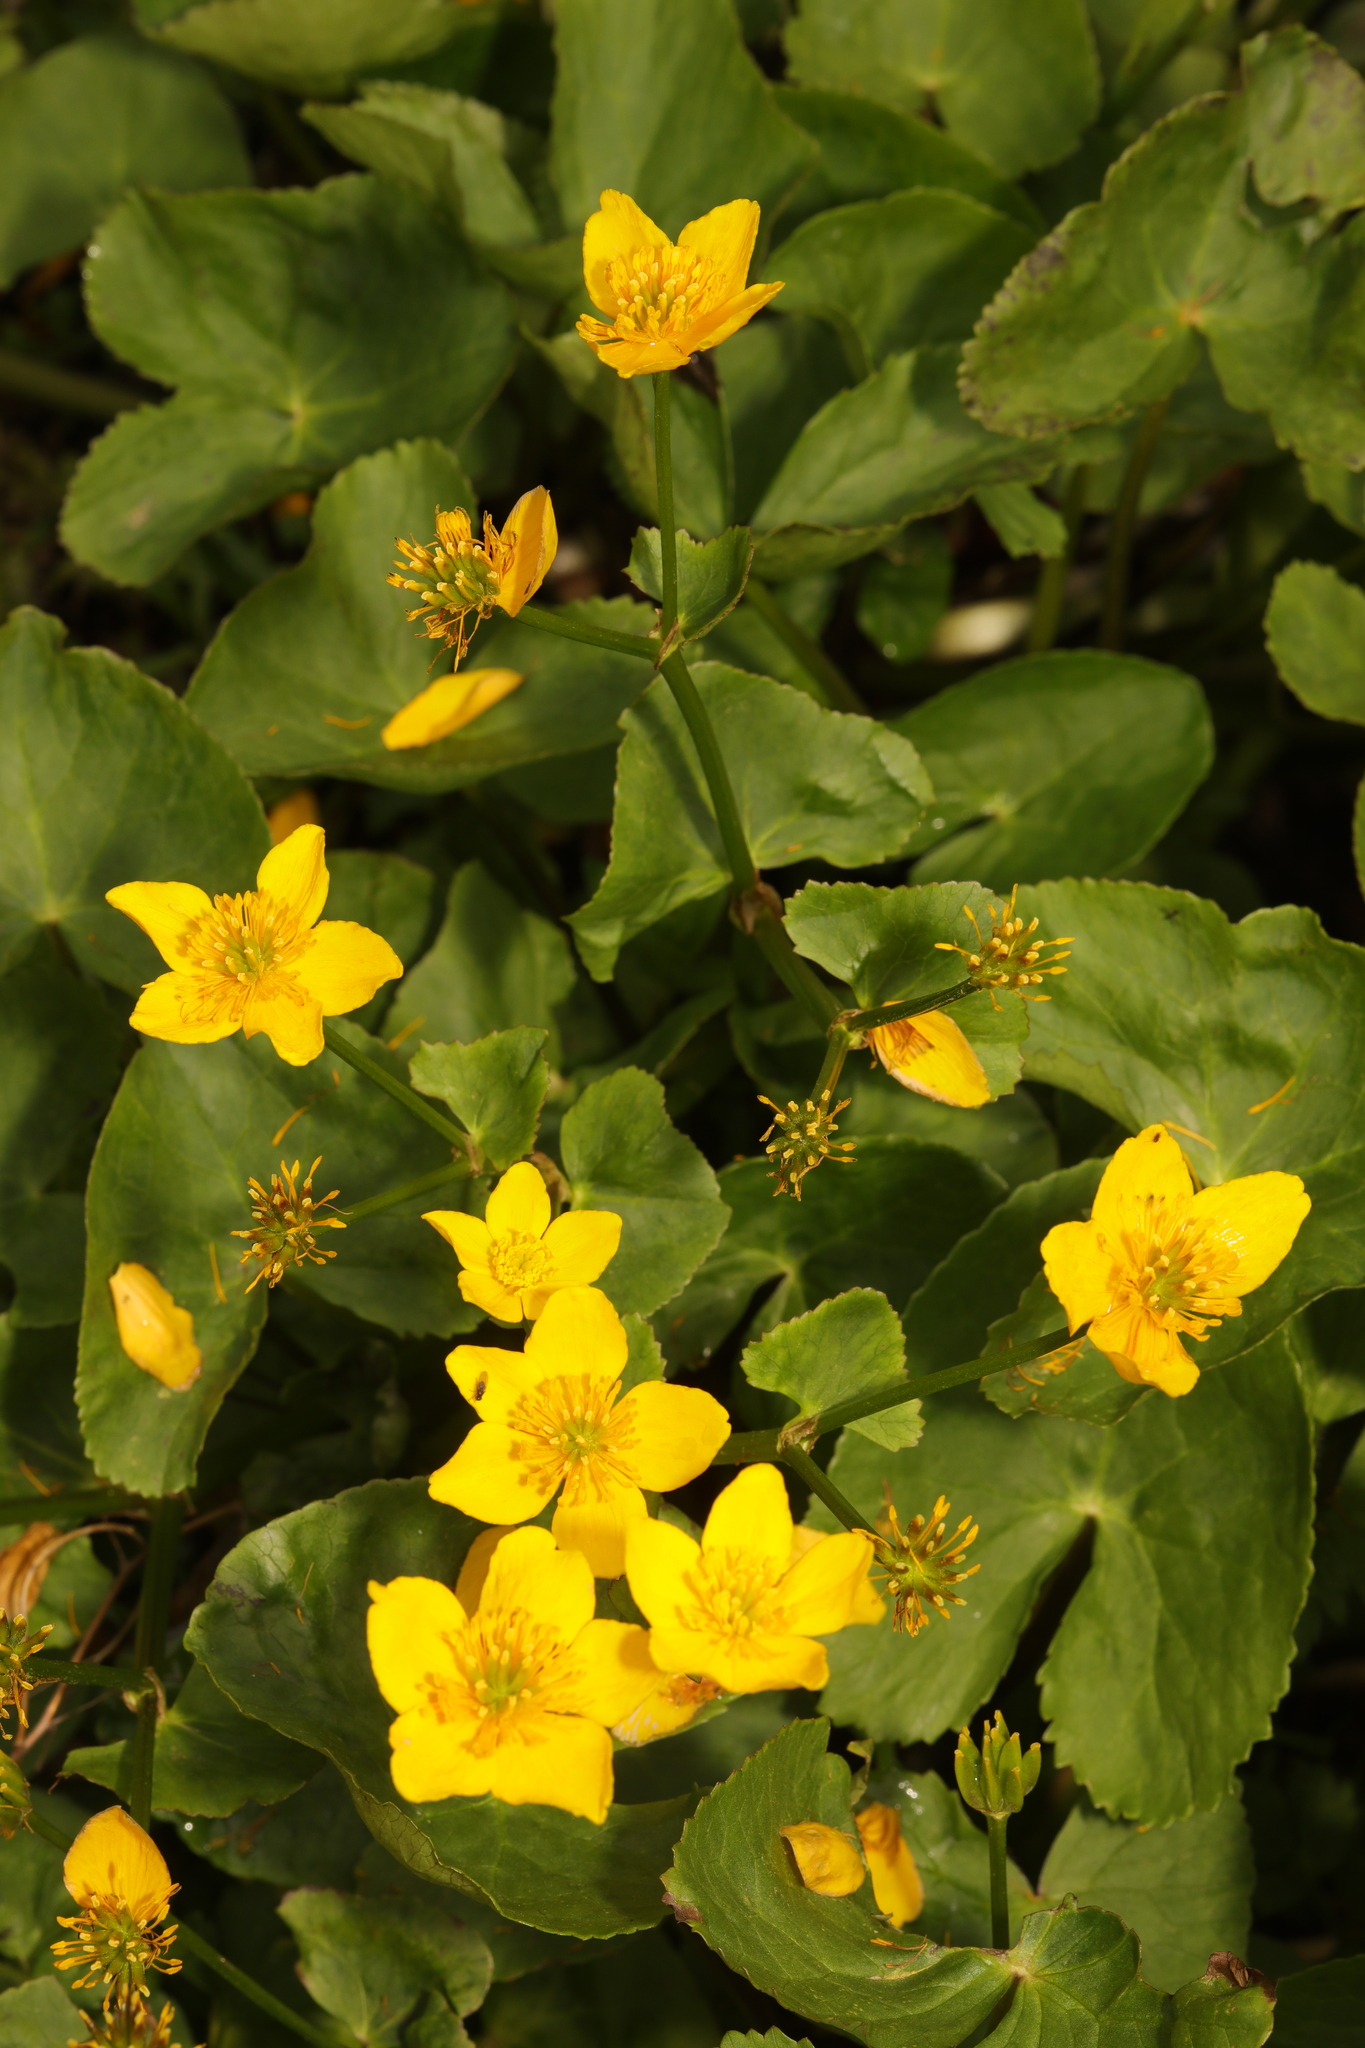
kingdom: Plantae
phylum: Tracheophyta
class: Magnoliopsida
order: Ranunculales
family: Ranunculaceae
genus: Caltha
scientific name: Caltha palustris
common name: Marsh marigold
